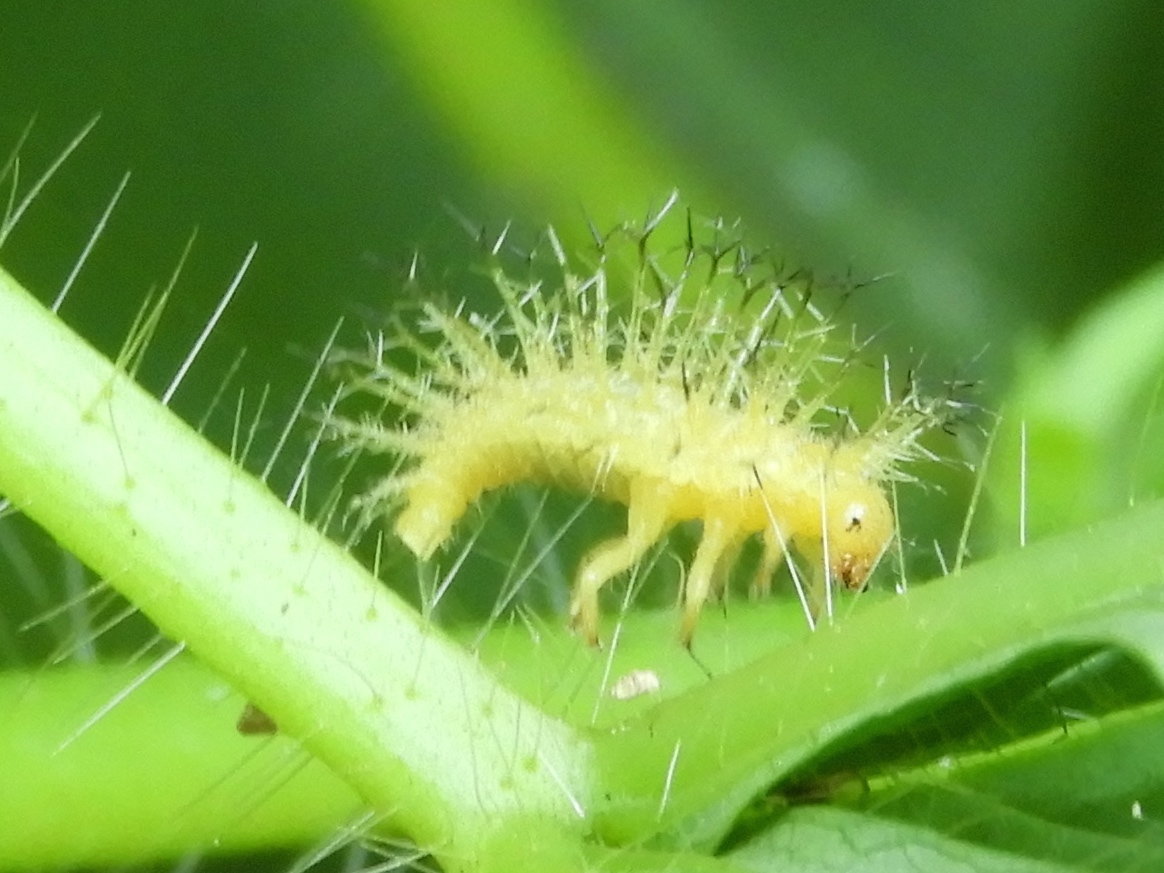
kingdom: Animalia
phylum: Arthropoda
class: Insecta
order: Coleoptera
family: Coccinellidae
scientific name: Coccinellidae
